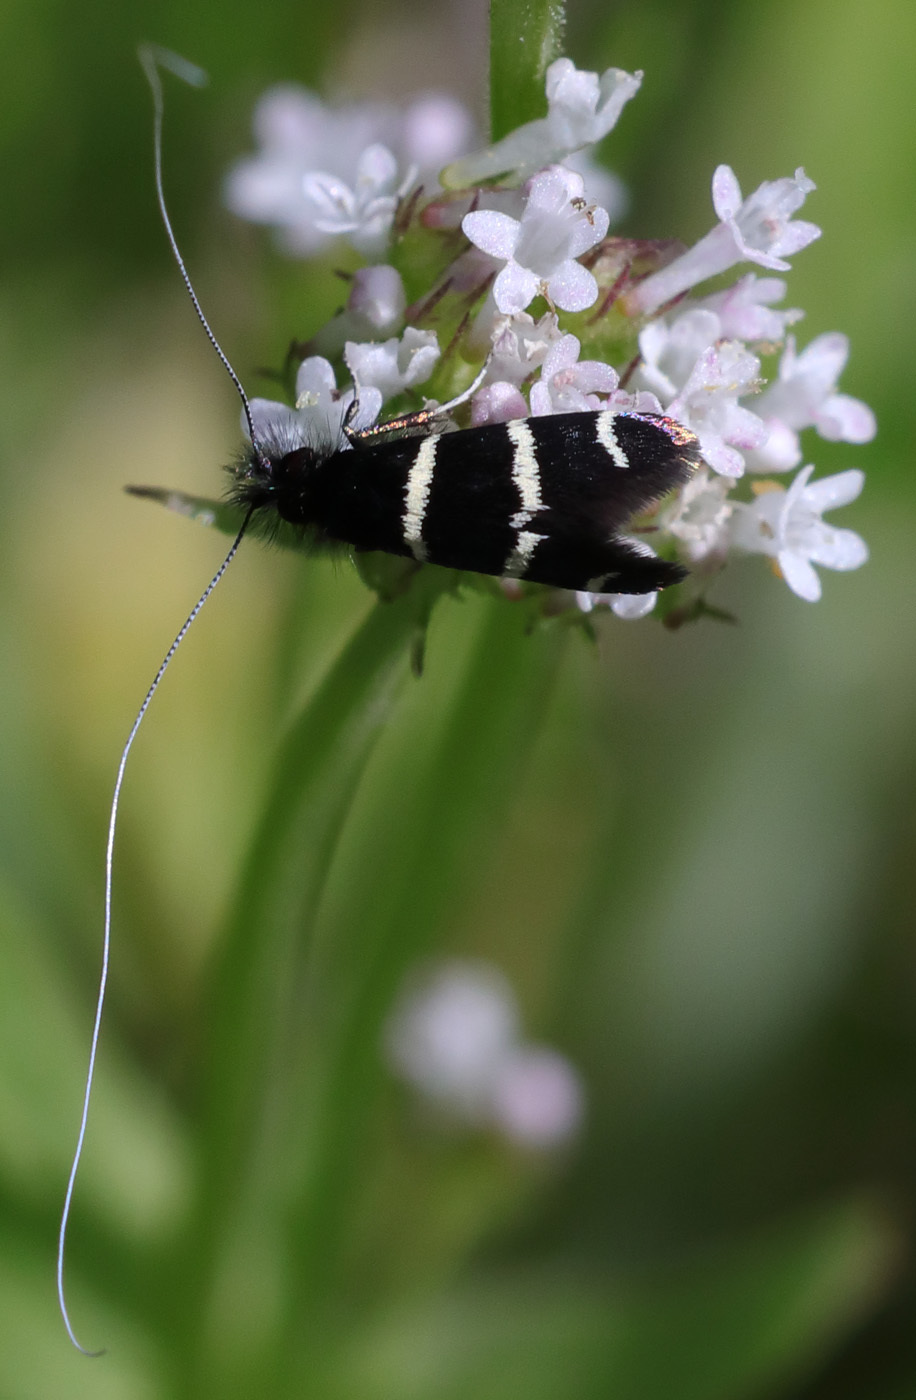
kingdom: Animalia
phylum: Arthropoda
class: Insecta
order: Lepidoptera
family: Adelidae
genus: Adela
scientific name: Adela trigrapha
